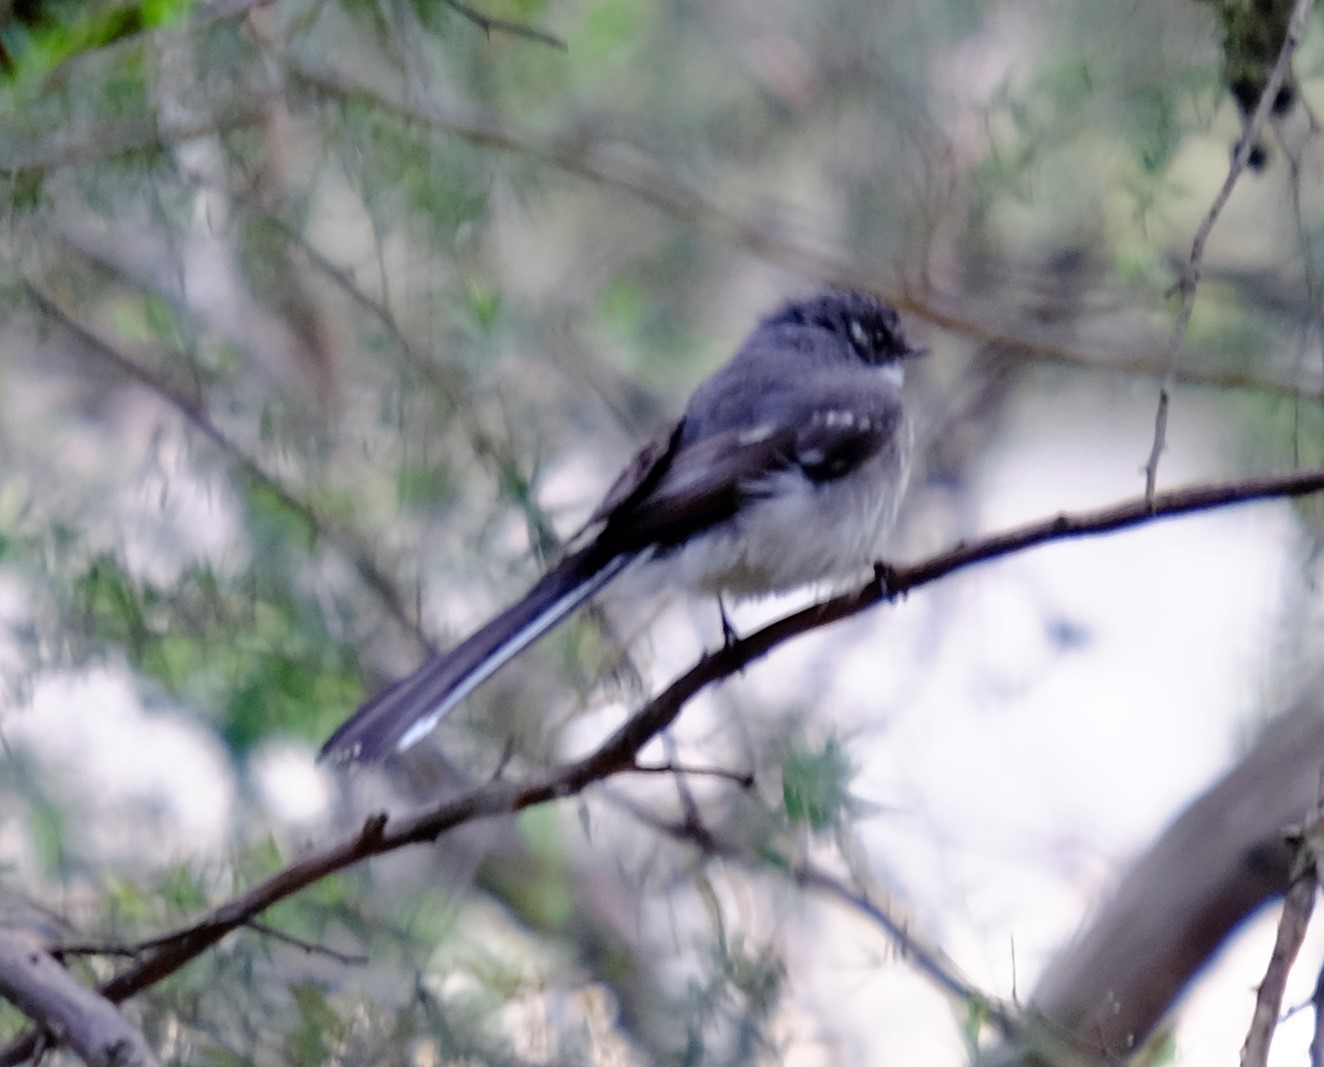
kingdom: Animalia
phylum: Chordata
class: Aves
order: Passeriformes
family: Rhipiduridae
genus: Rhipidura
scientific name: Rhipidura albiscapa
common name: Grey fantail
